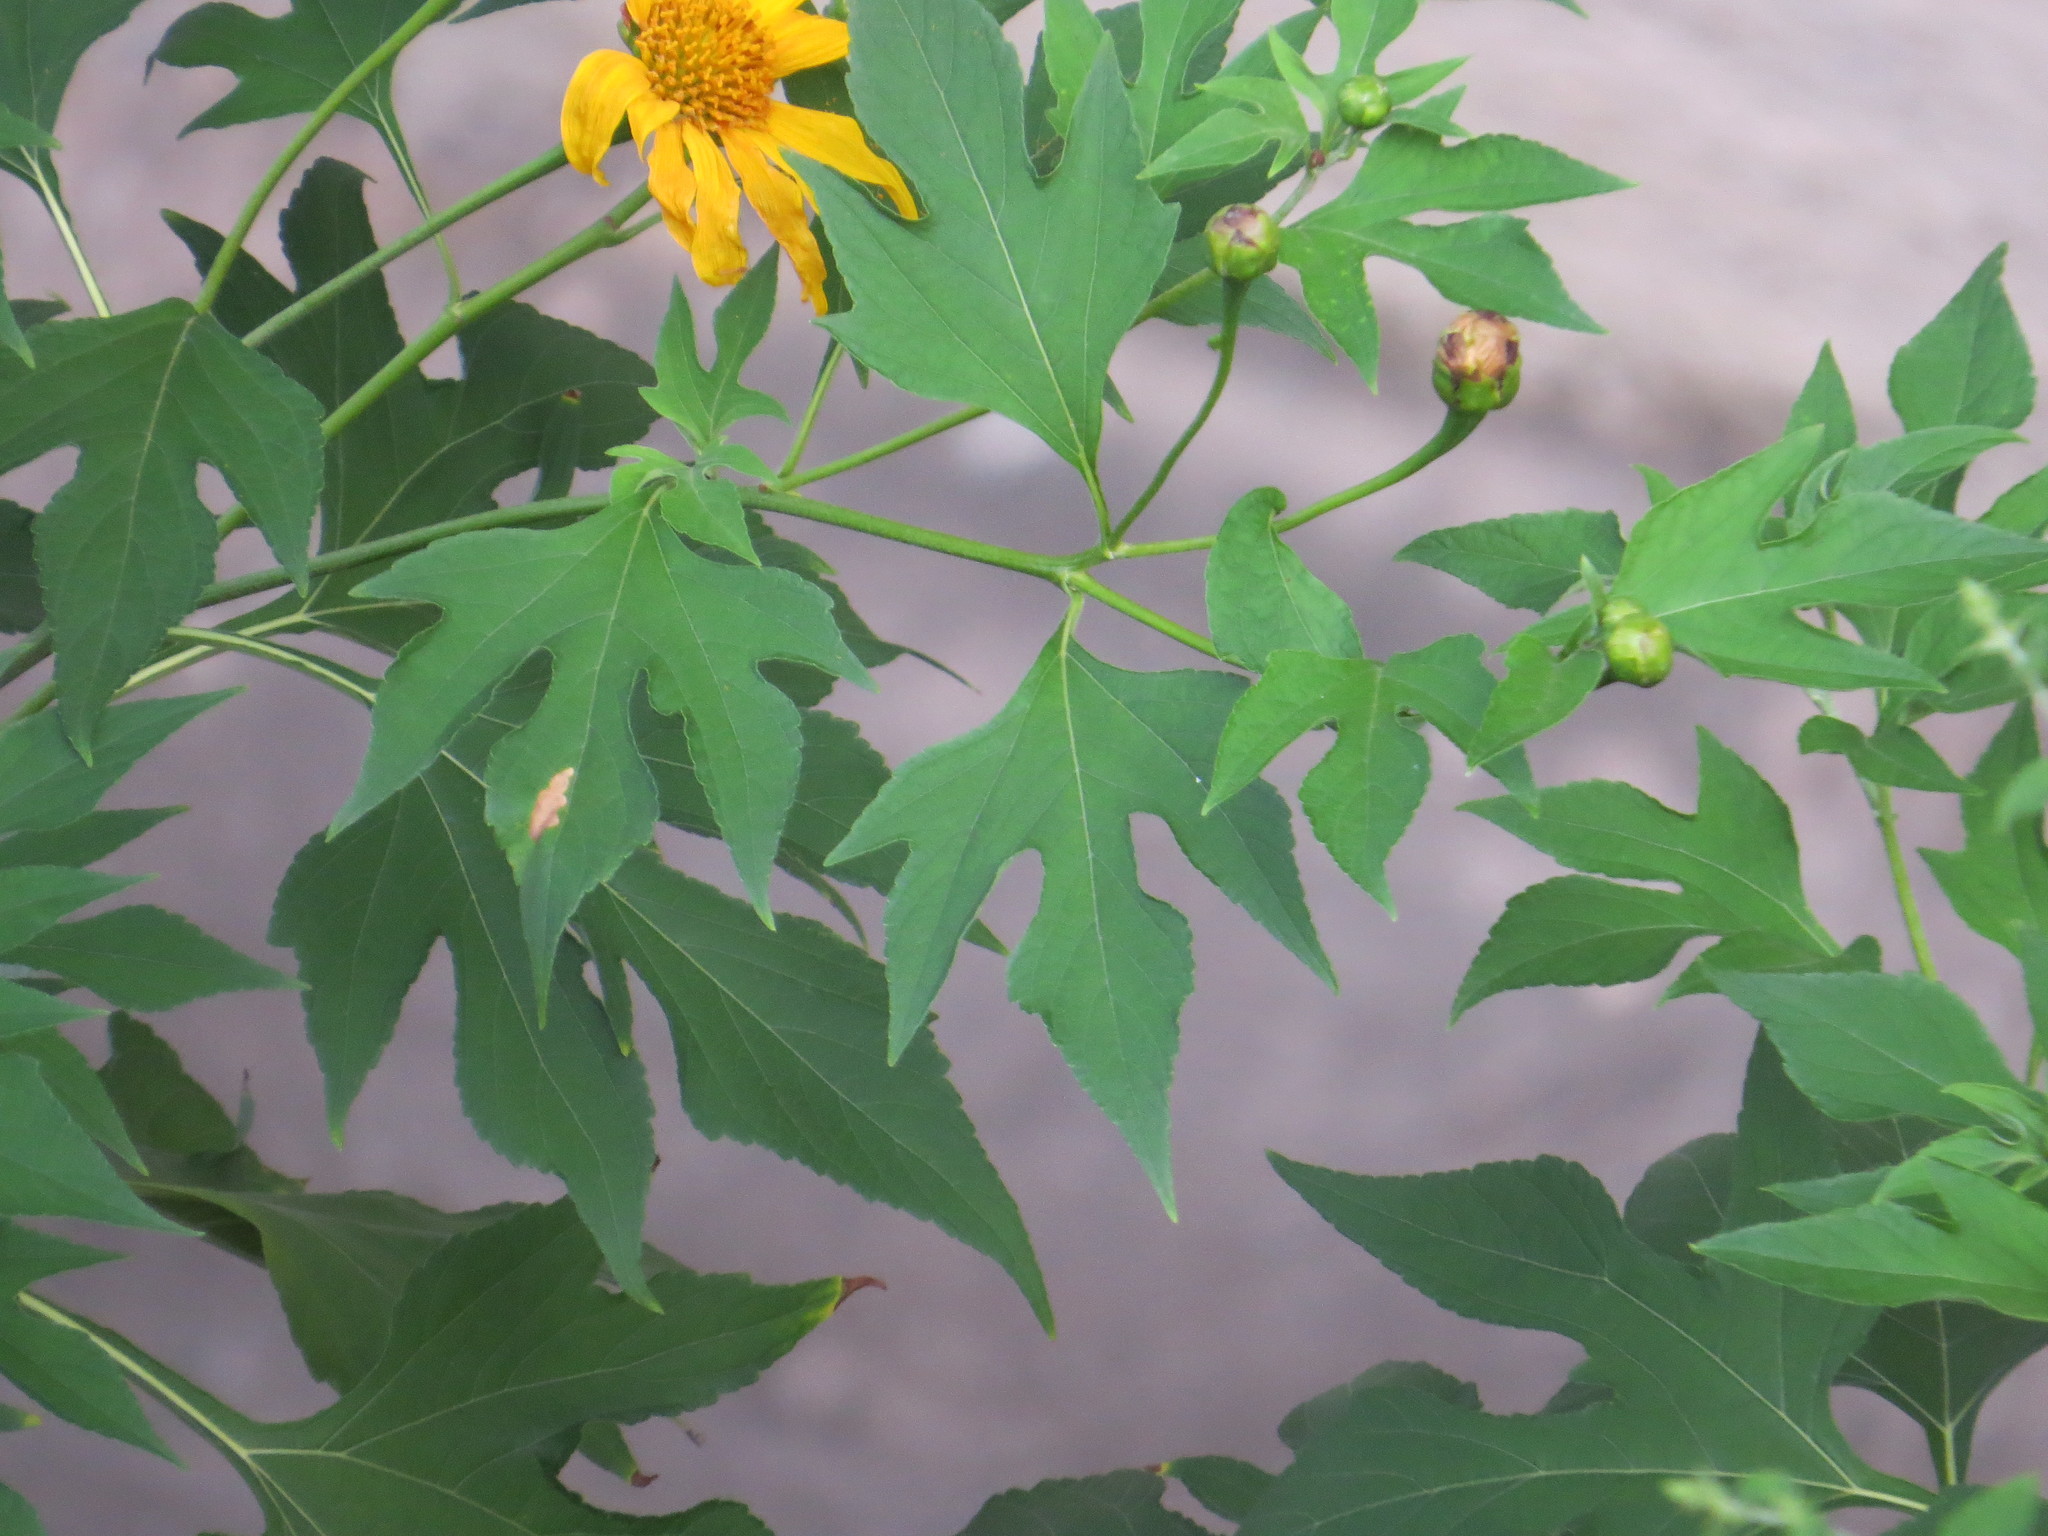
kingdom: Plantae
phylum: Tracheophyta
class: Magnoliopsida
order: Asterales
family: Asteraceae
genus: Tithonia
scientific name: Tithonia diversifolia
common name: Tree marigold
